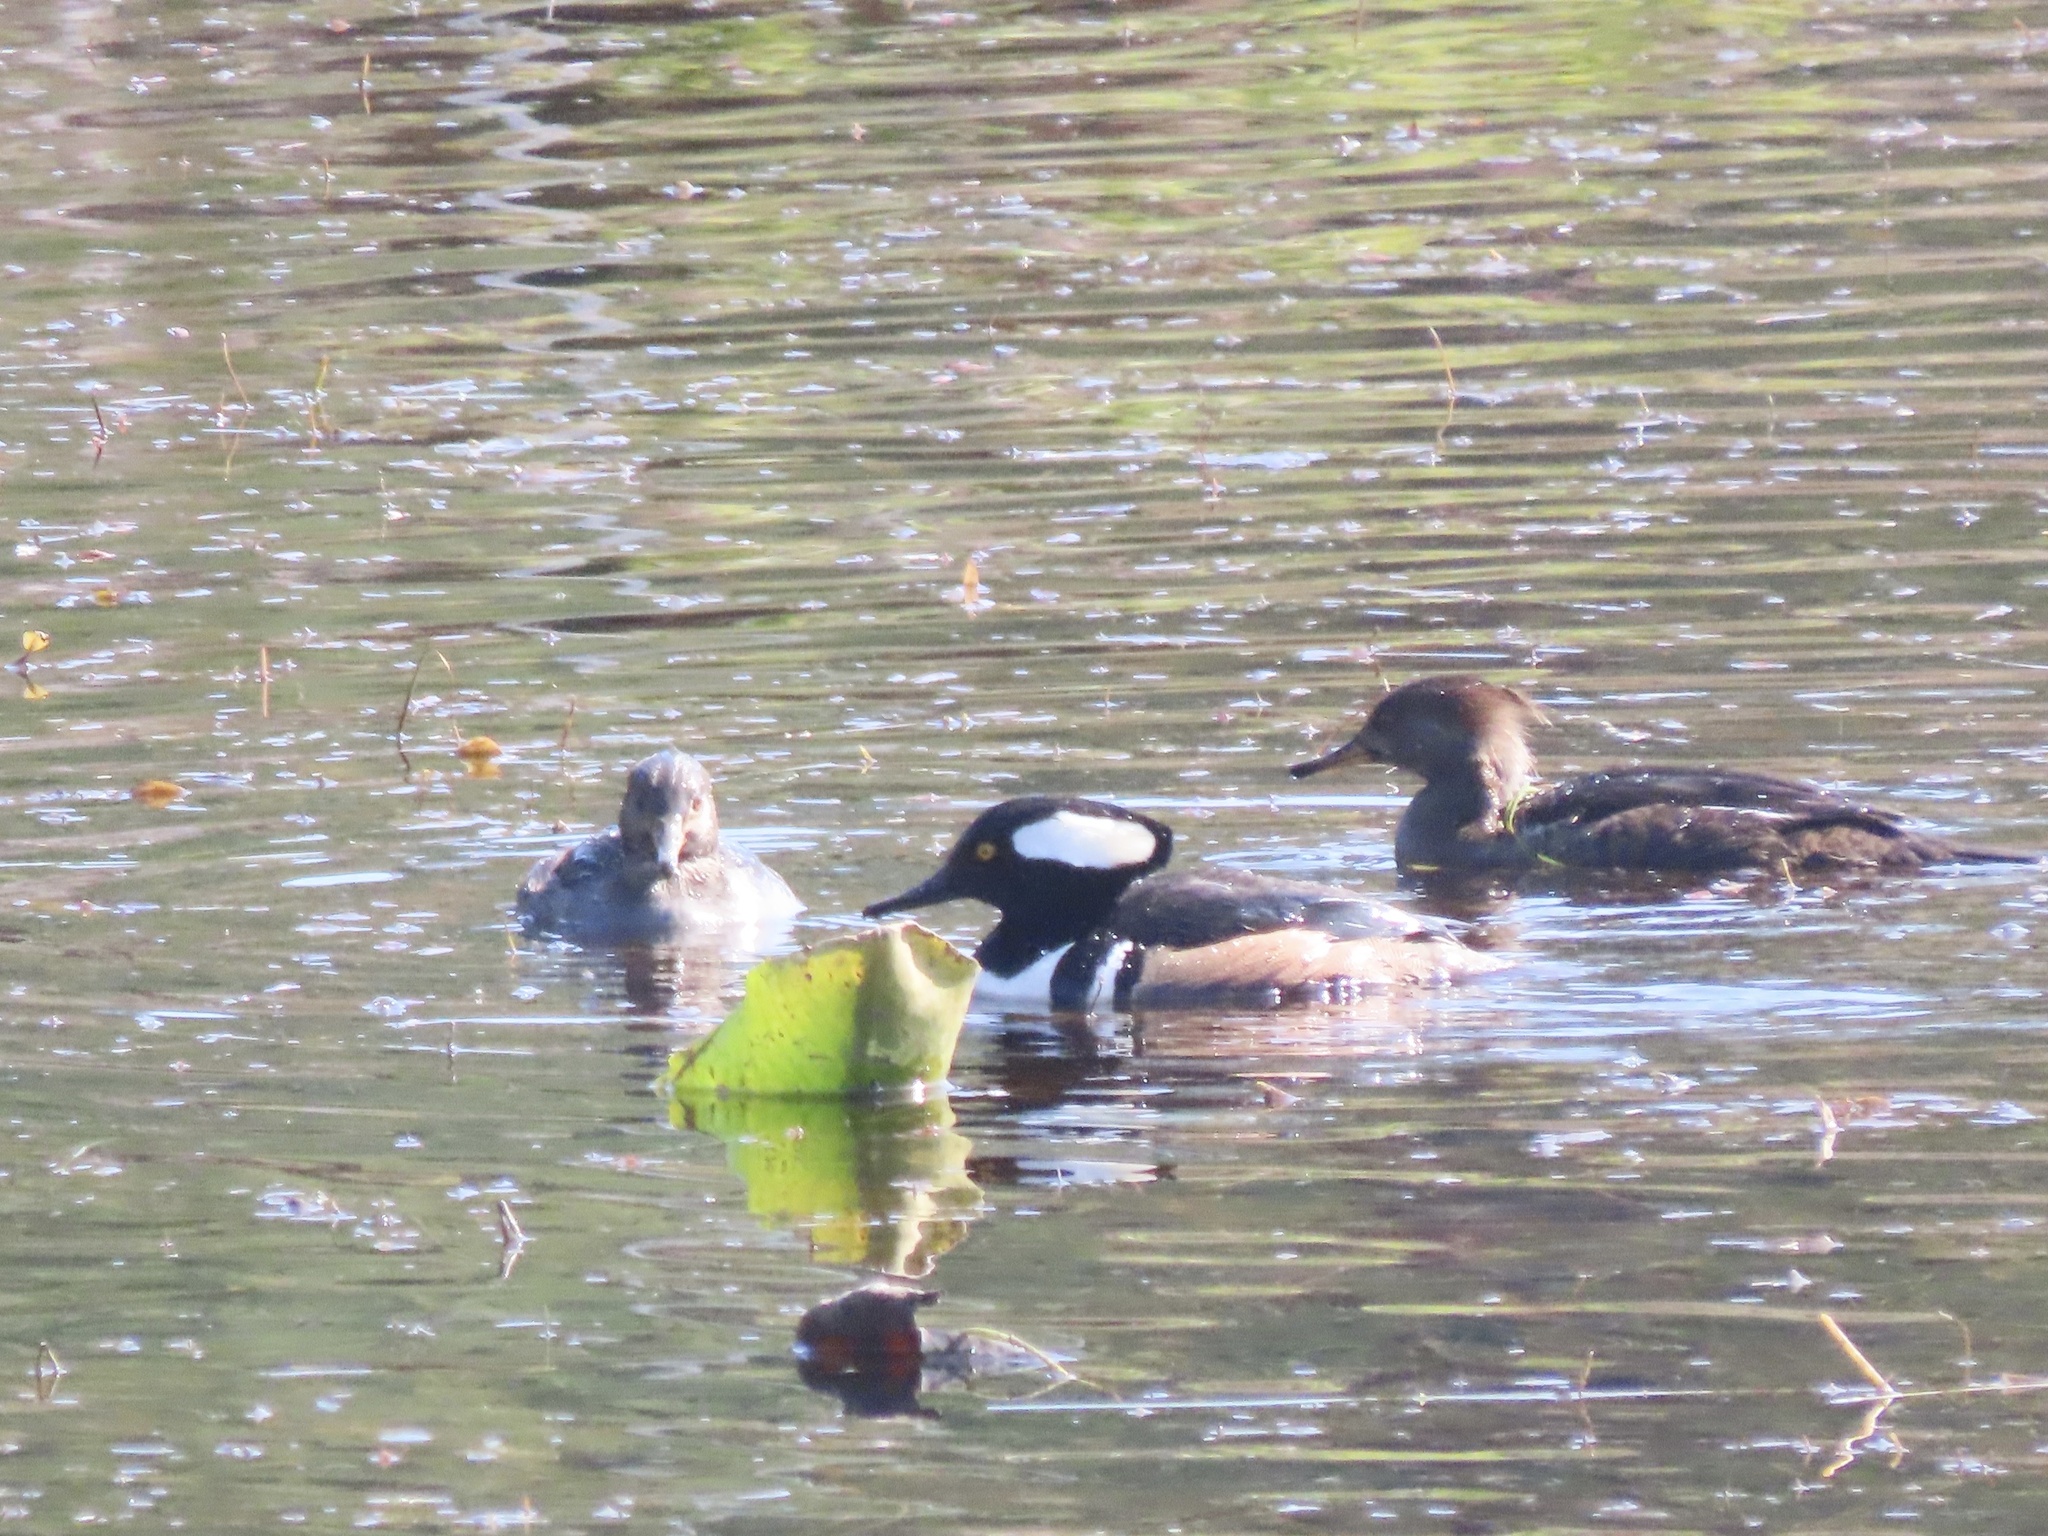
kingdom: Animalia
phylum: Chordata
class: Aves
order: Anseriformes
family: Anatidae
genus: Lophodytes
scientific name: Lophodytes cucullatus
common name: Hooded merganser
